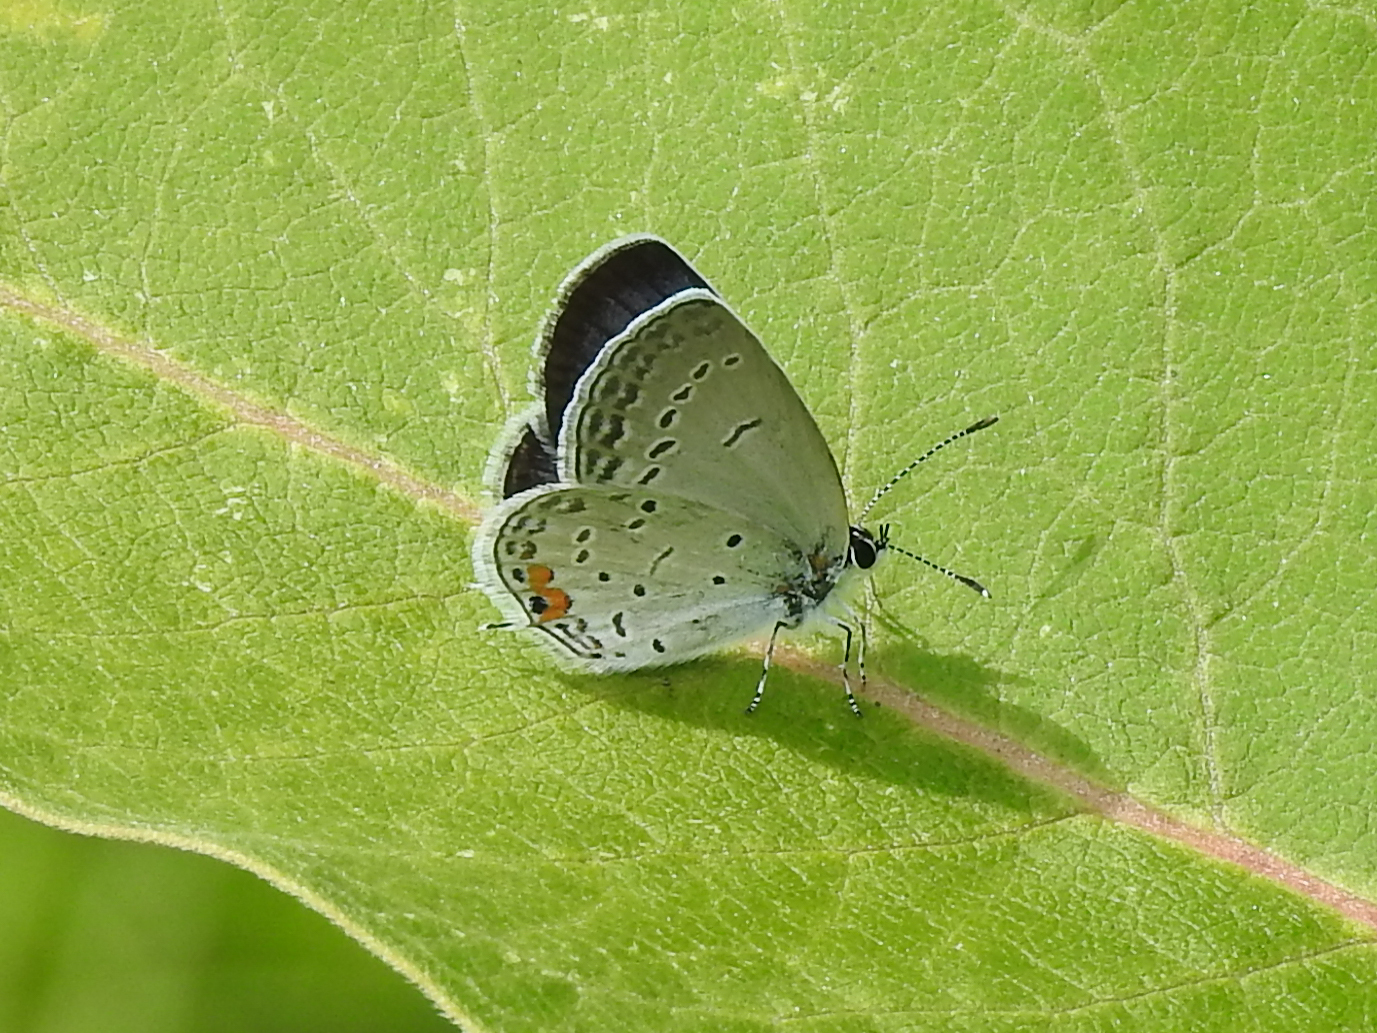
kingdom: Animalia
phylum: Arthropoda
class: Insecta
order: Lepidoptera
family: Lycaenidae
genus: Elkalyce
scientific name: Elkalyce comyntas
